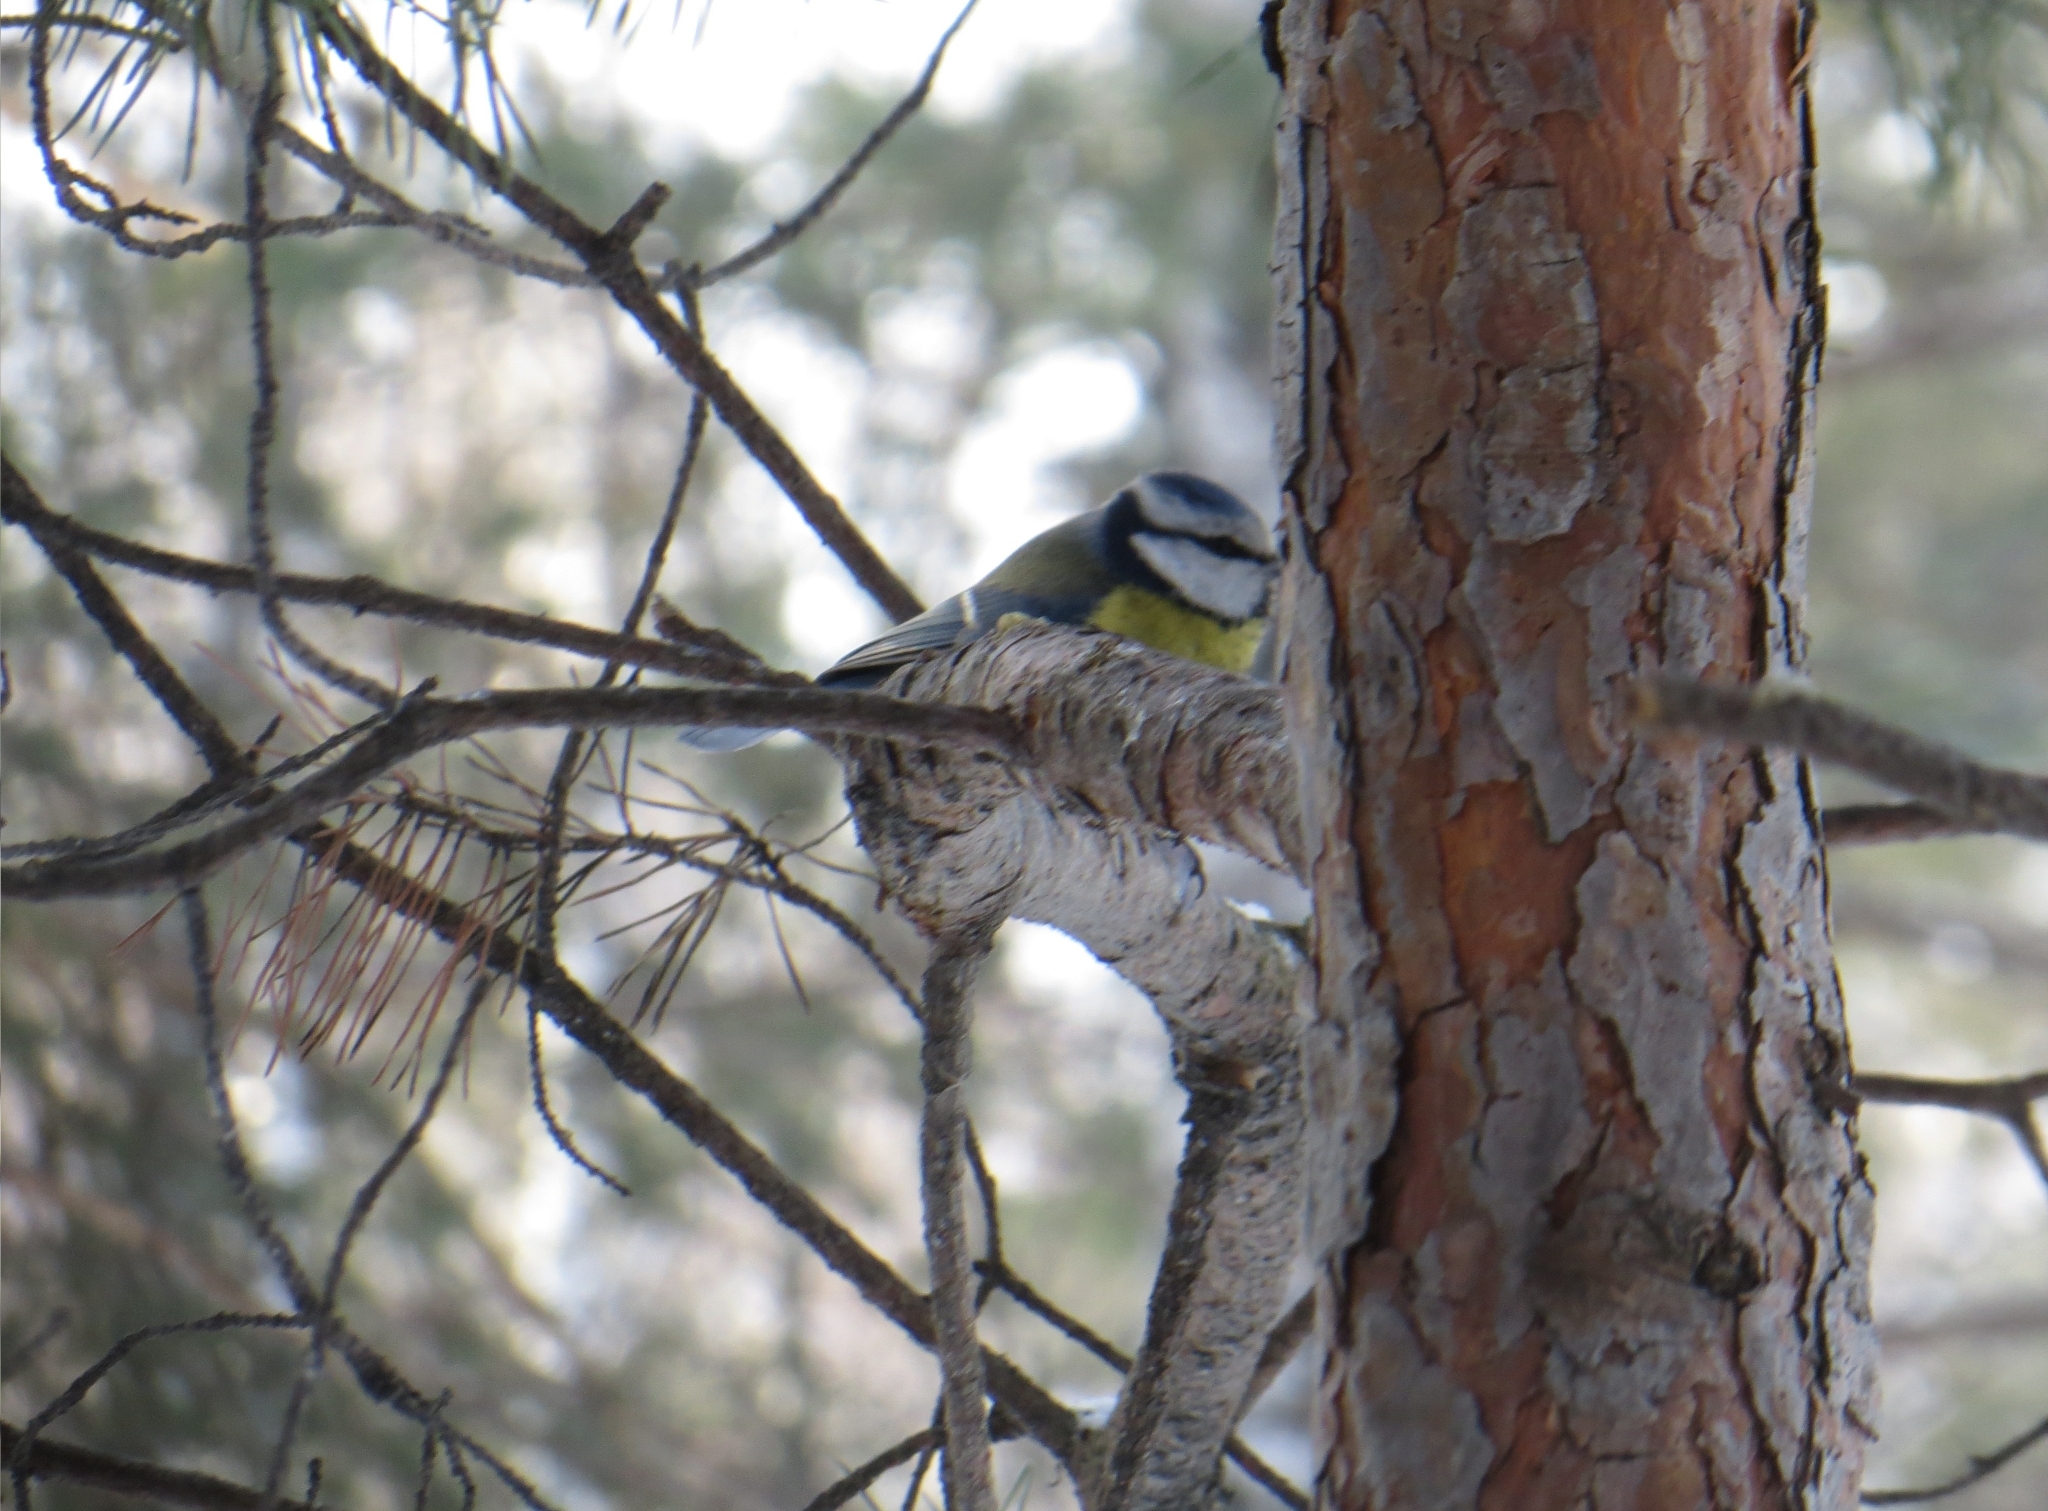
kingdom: Animalia
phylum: Chordata
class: Aves
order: Passeriformes
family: Paridae
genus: Cyanistes
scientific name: Cyanistes caeruleus
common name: Eurasian blue tit
